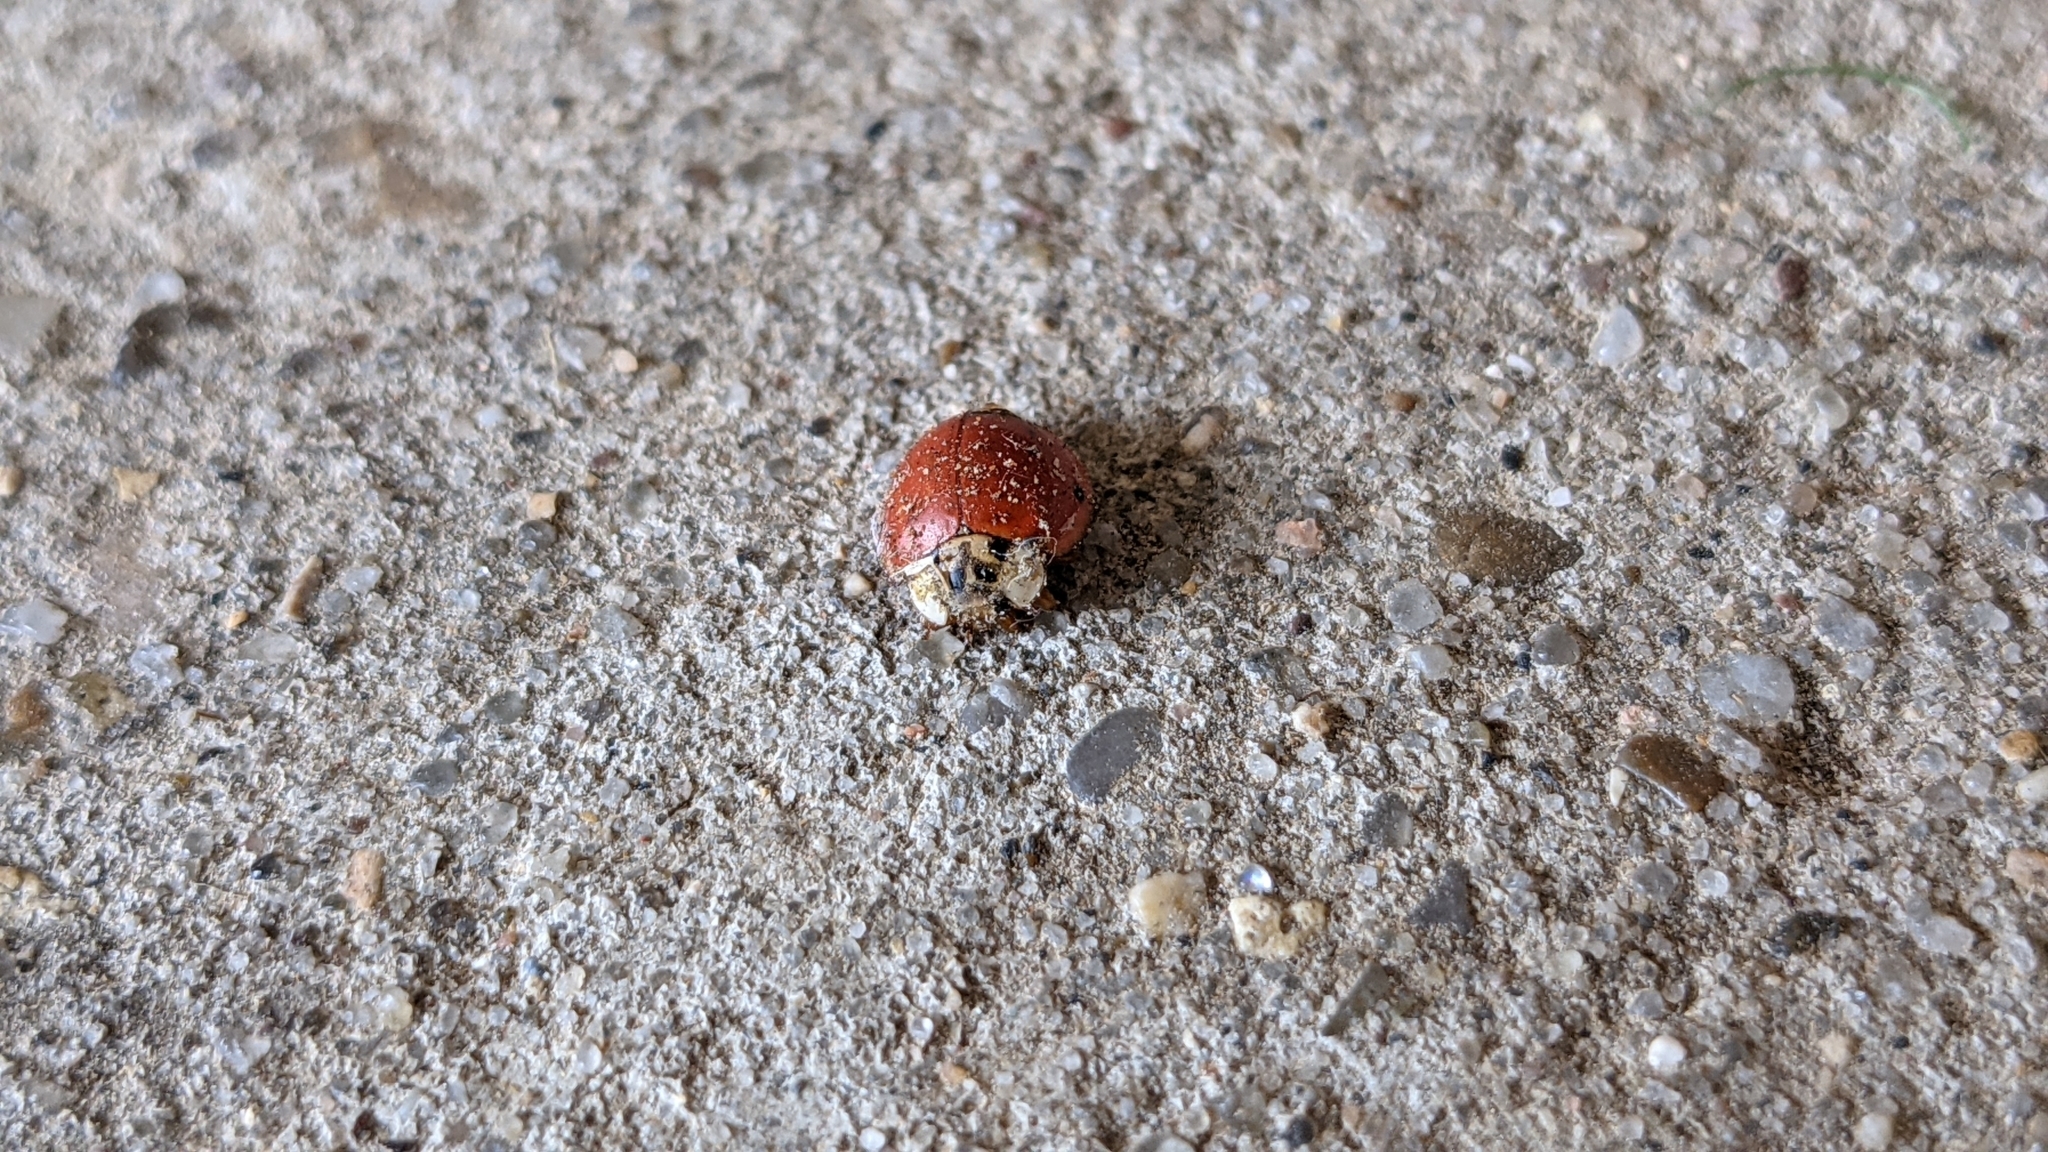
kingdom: Animalia
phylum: Arthropoda
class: Insecta
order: Coleoptera
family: Coccinellidae
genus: Harmonia
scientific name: Harmonia axyridis
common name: Harlequin ladybird
